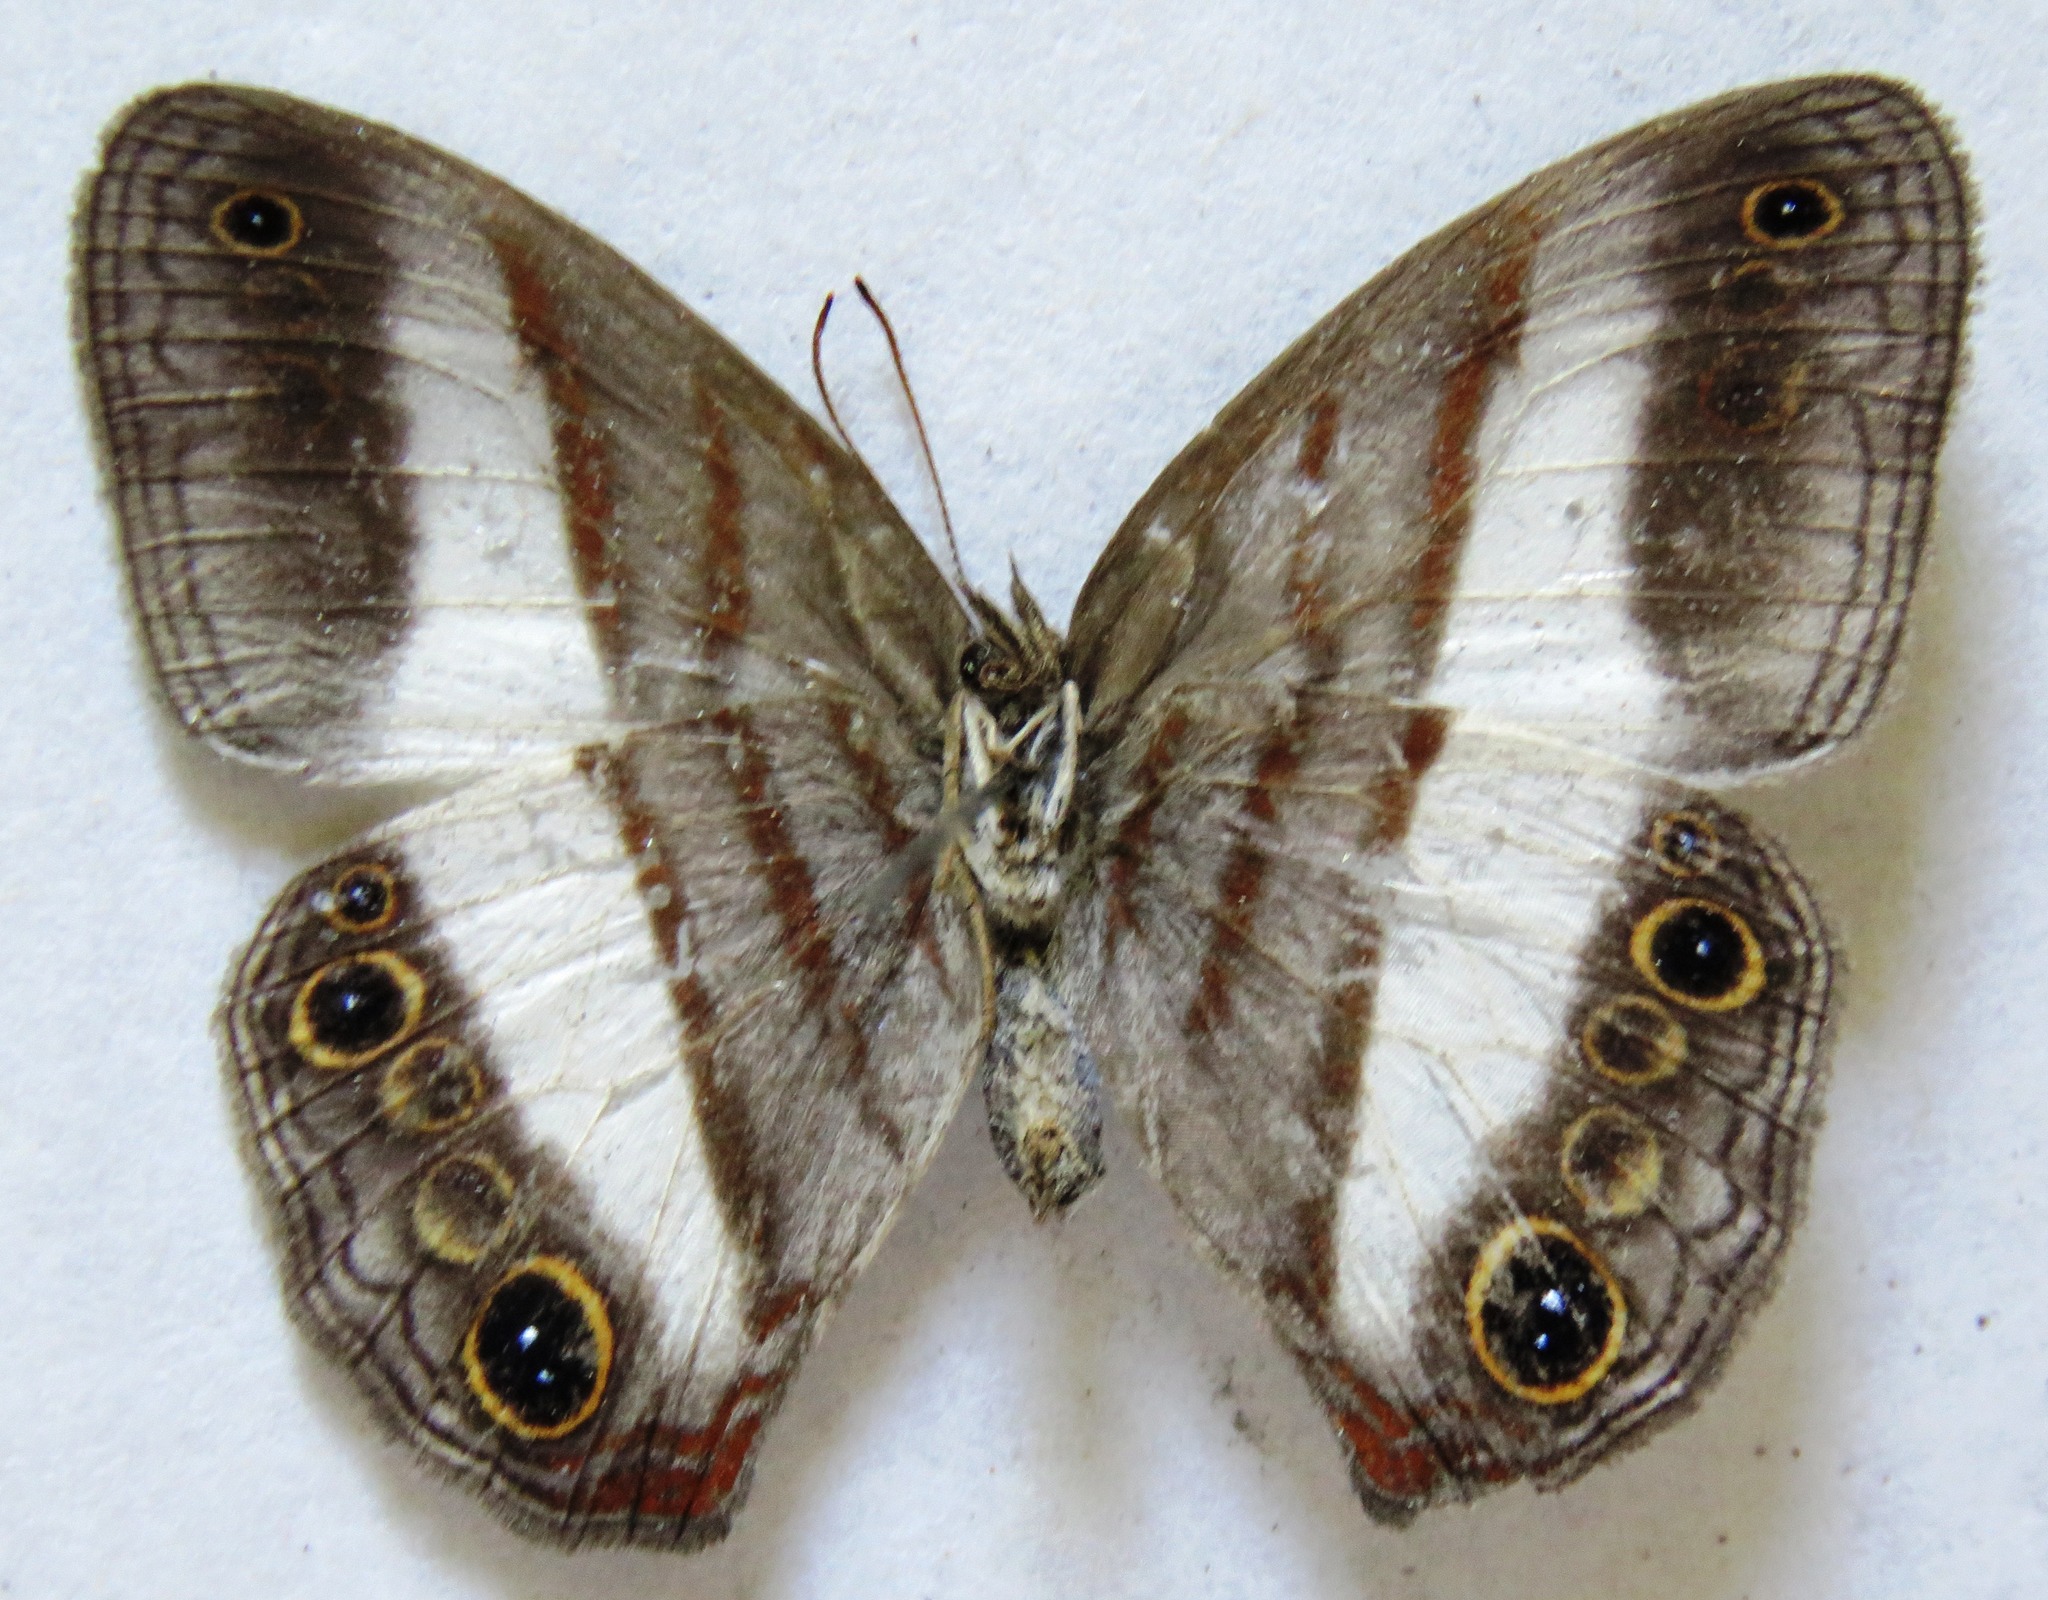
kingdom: Animalia
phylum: Arthropoda
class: Insecta
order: Lepidoptera
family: Nymphalidae
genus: Pareuptychia
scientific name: Pareuptychia metaleuca
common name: White-banded satyr
